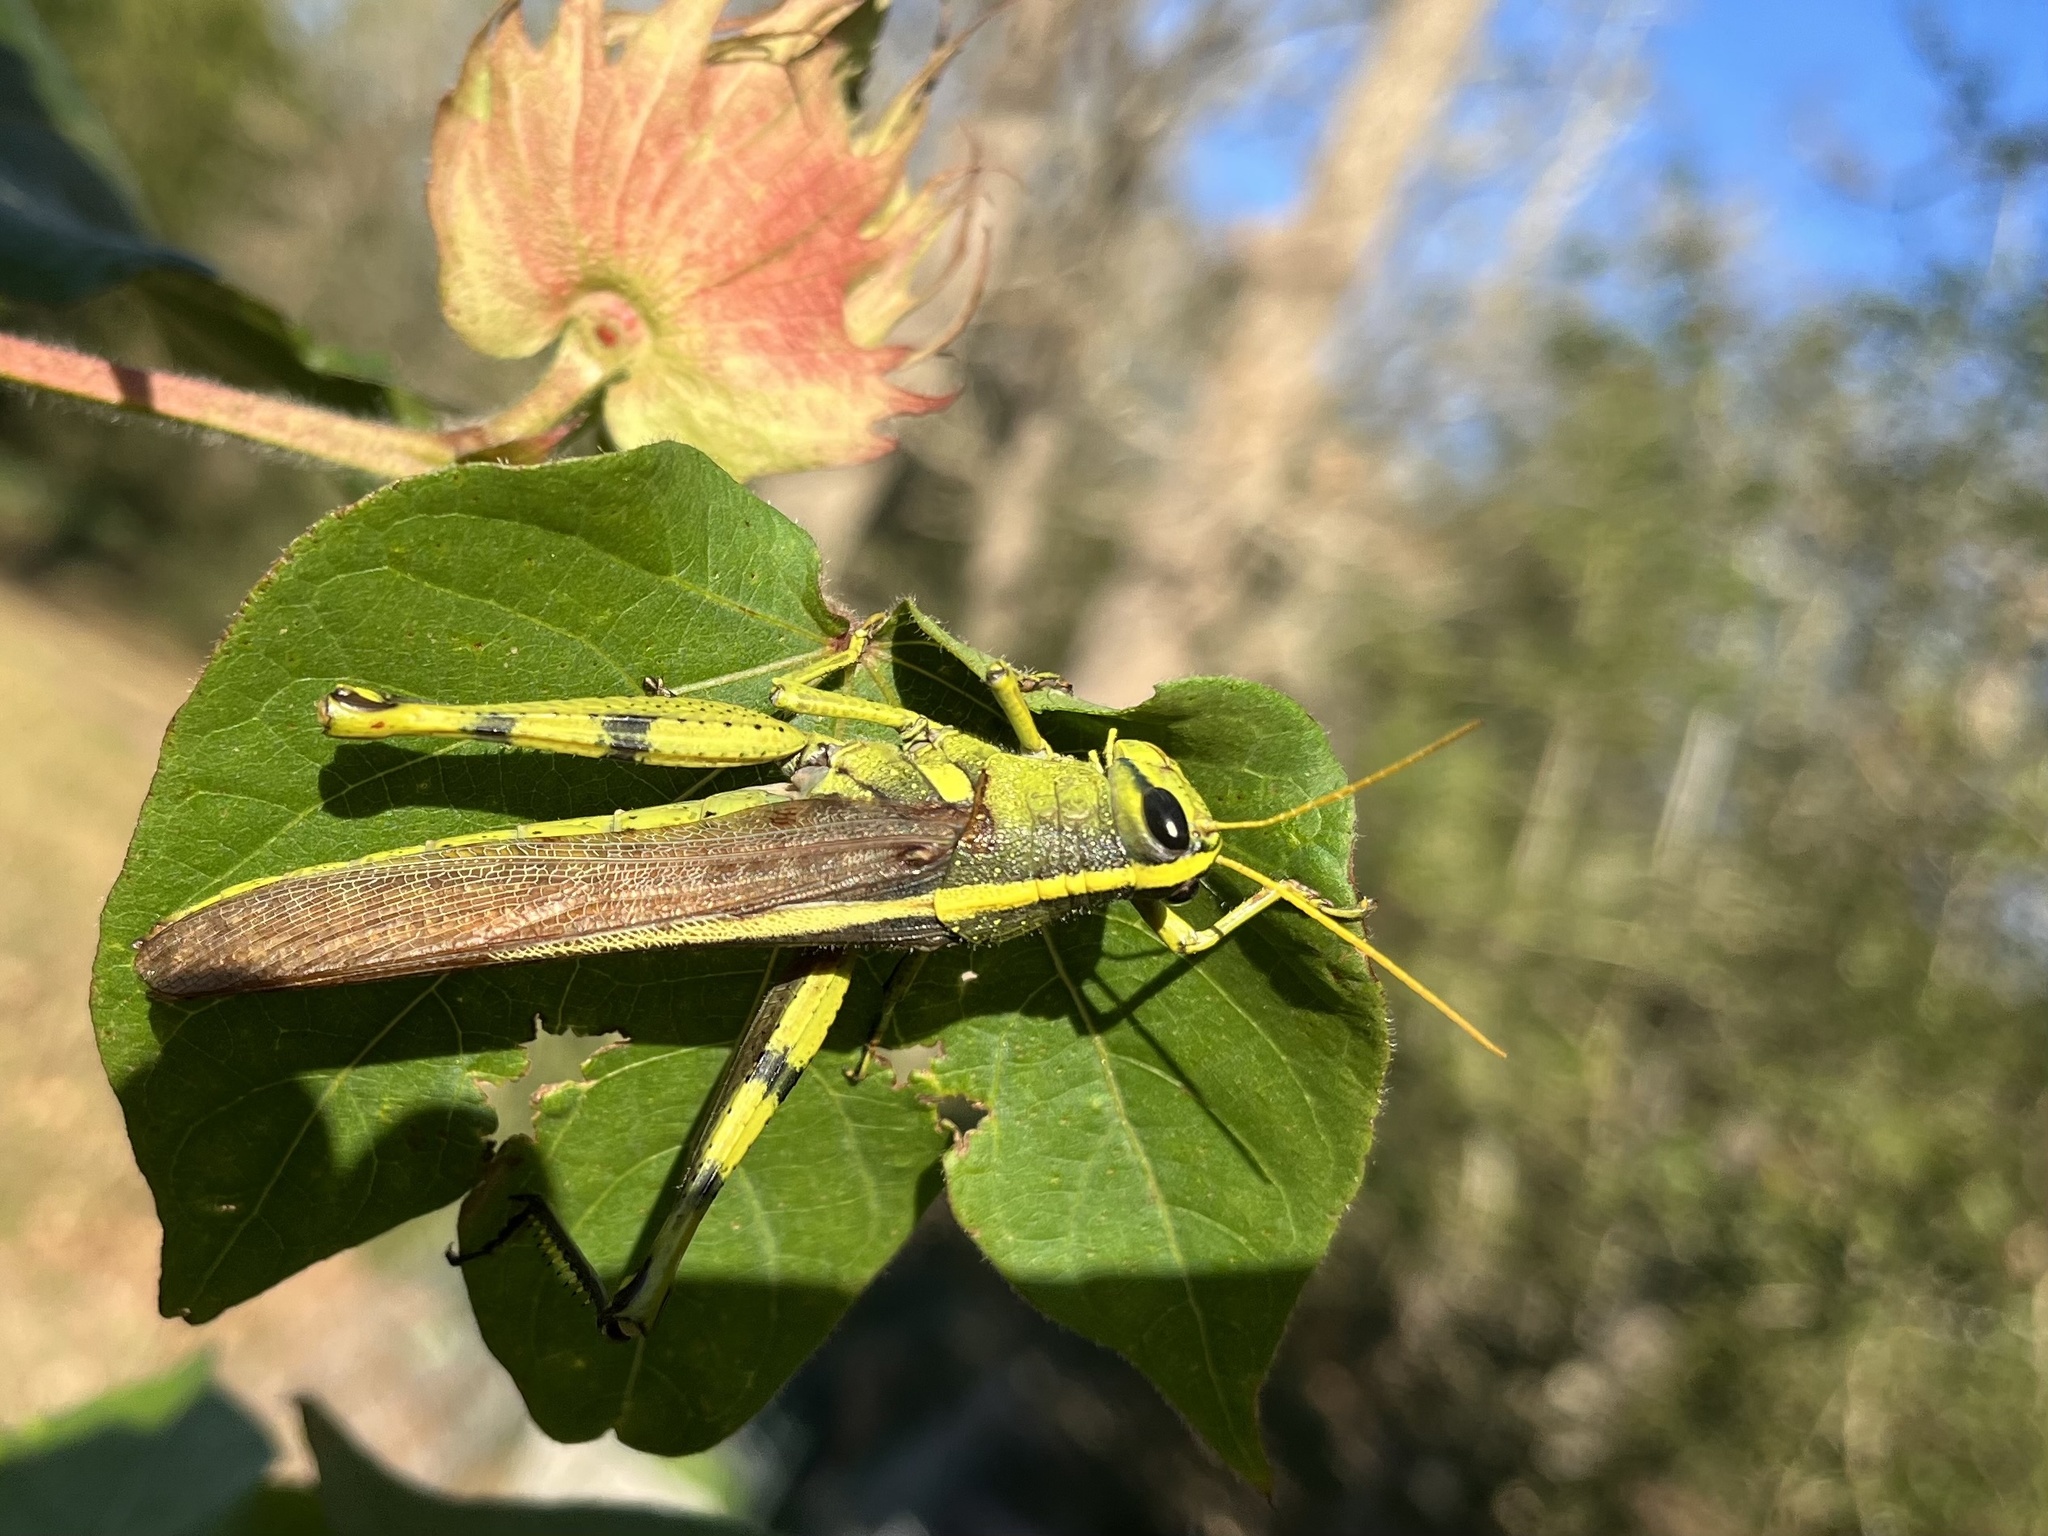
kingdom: Animalia
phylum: Arthropoda
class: Insecta
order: Orthoptera
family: Acrididae
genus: Schistocerca
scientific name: Schistocerca obscura
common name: Obscure bird grasshopper
